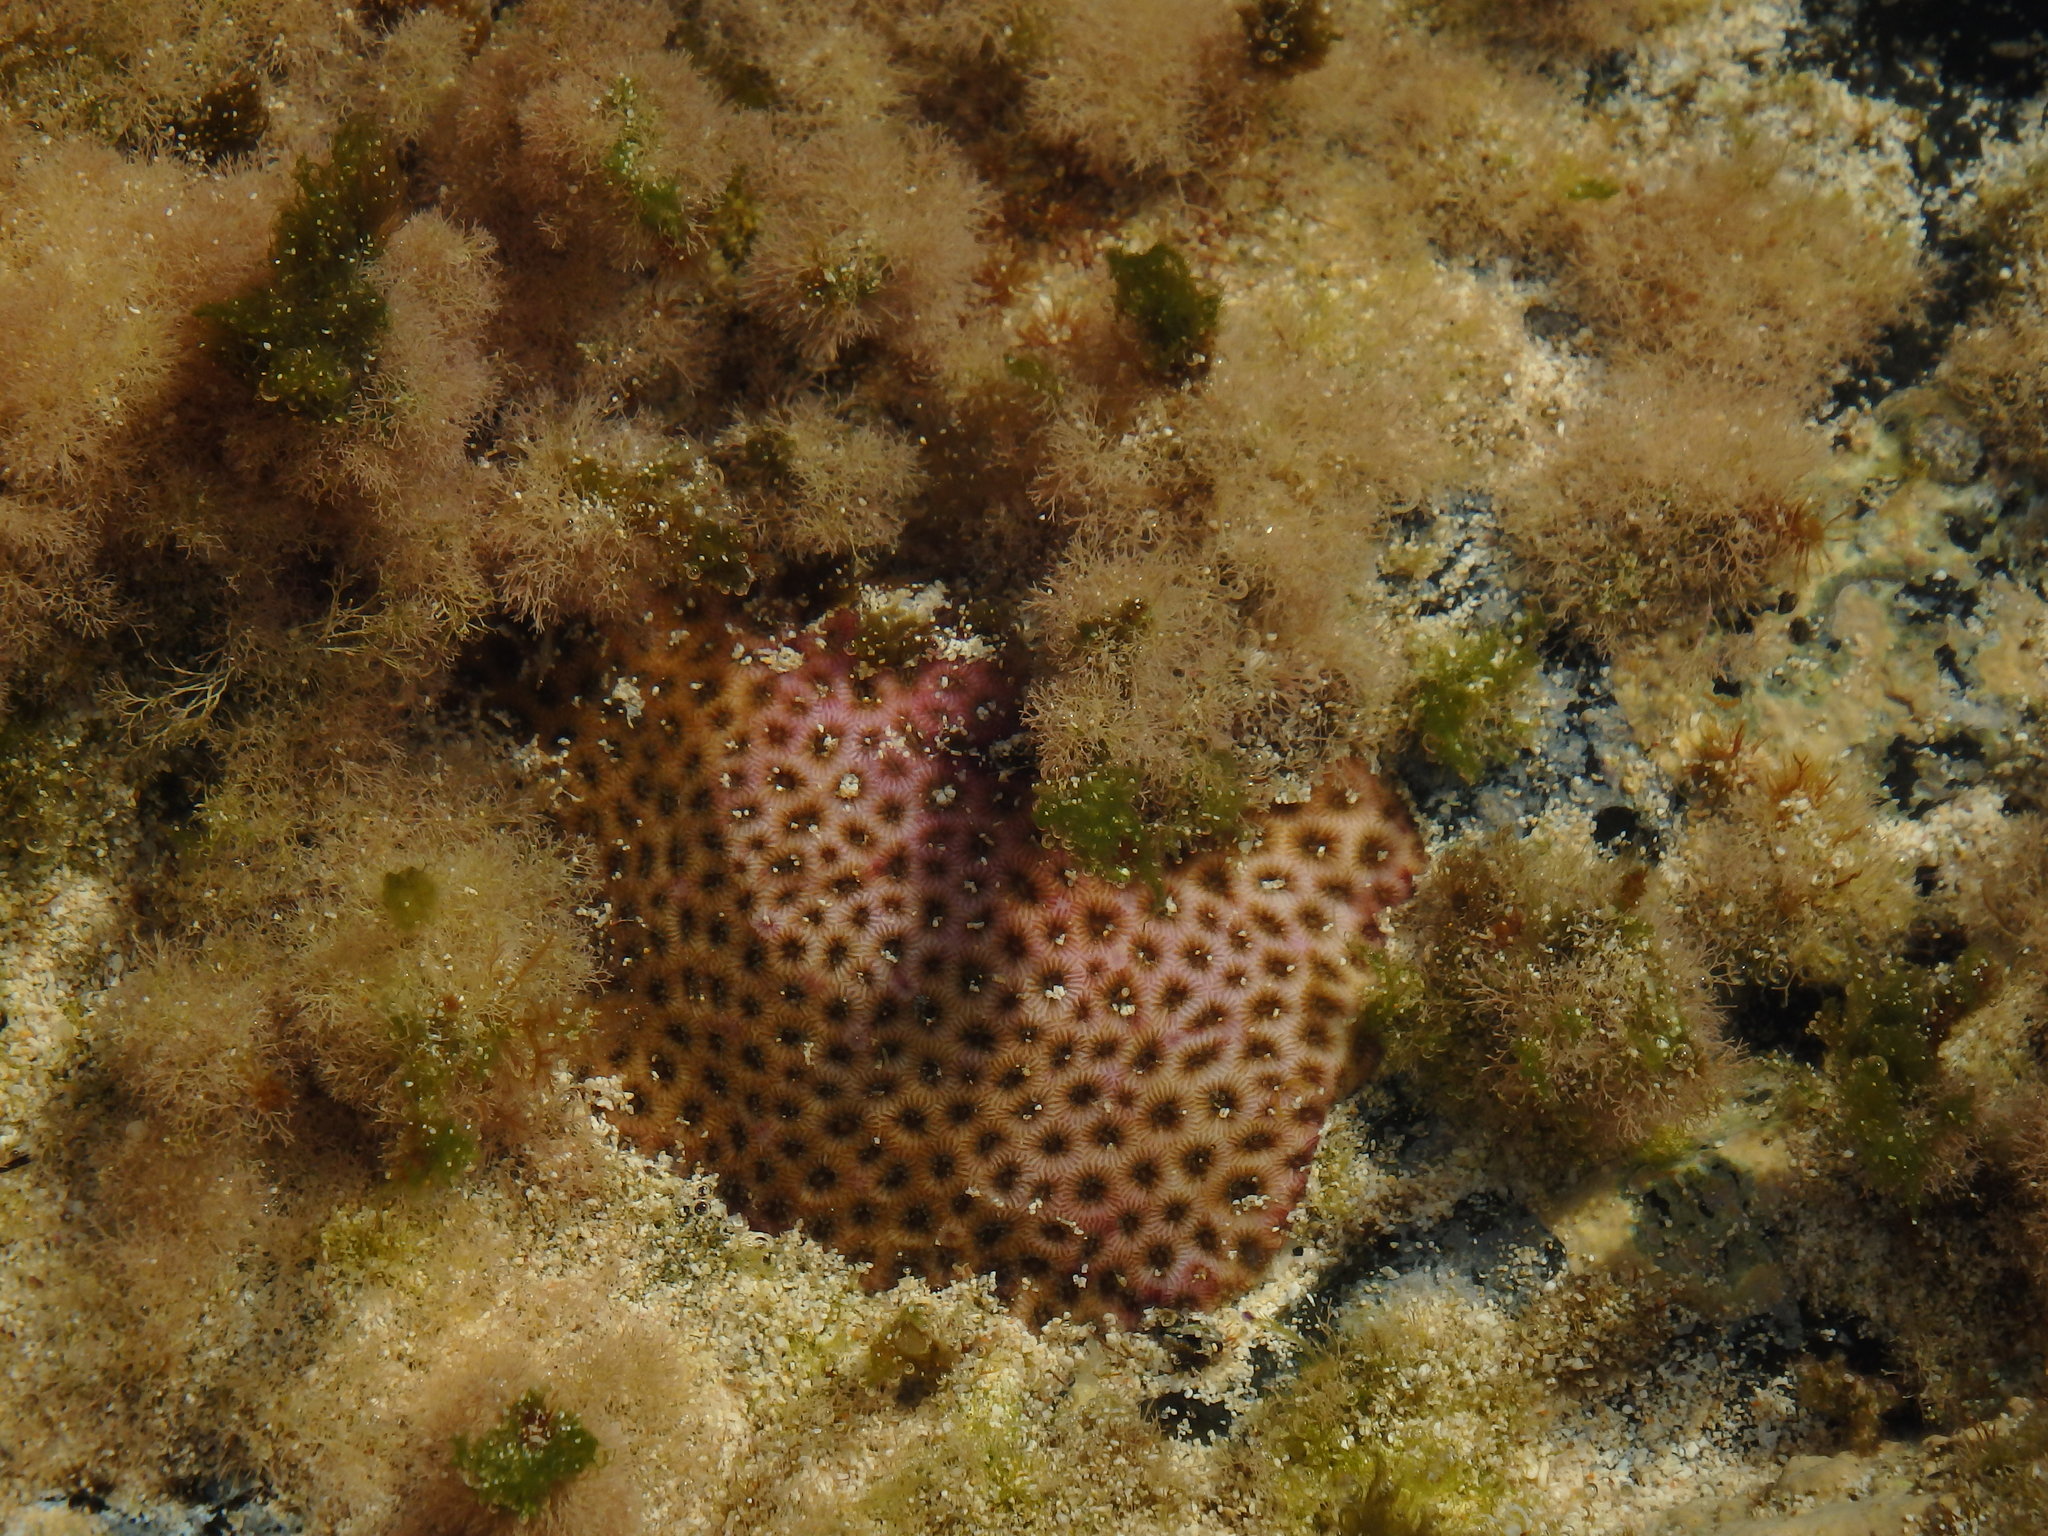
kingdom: Animalia
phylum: Cnidaria
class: Anthozoa
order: Scleractinia
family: Rhizangiidae
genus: Siderastrea
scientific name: Siderastrea radians
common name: Lesser starlet coral
